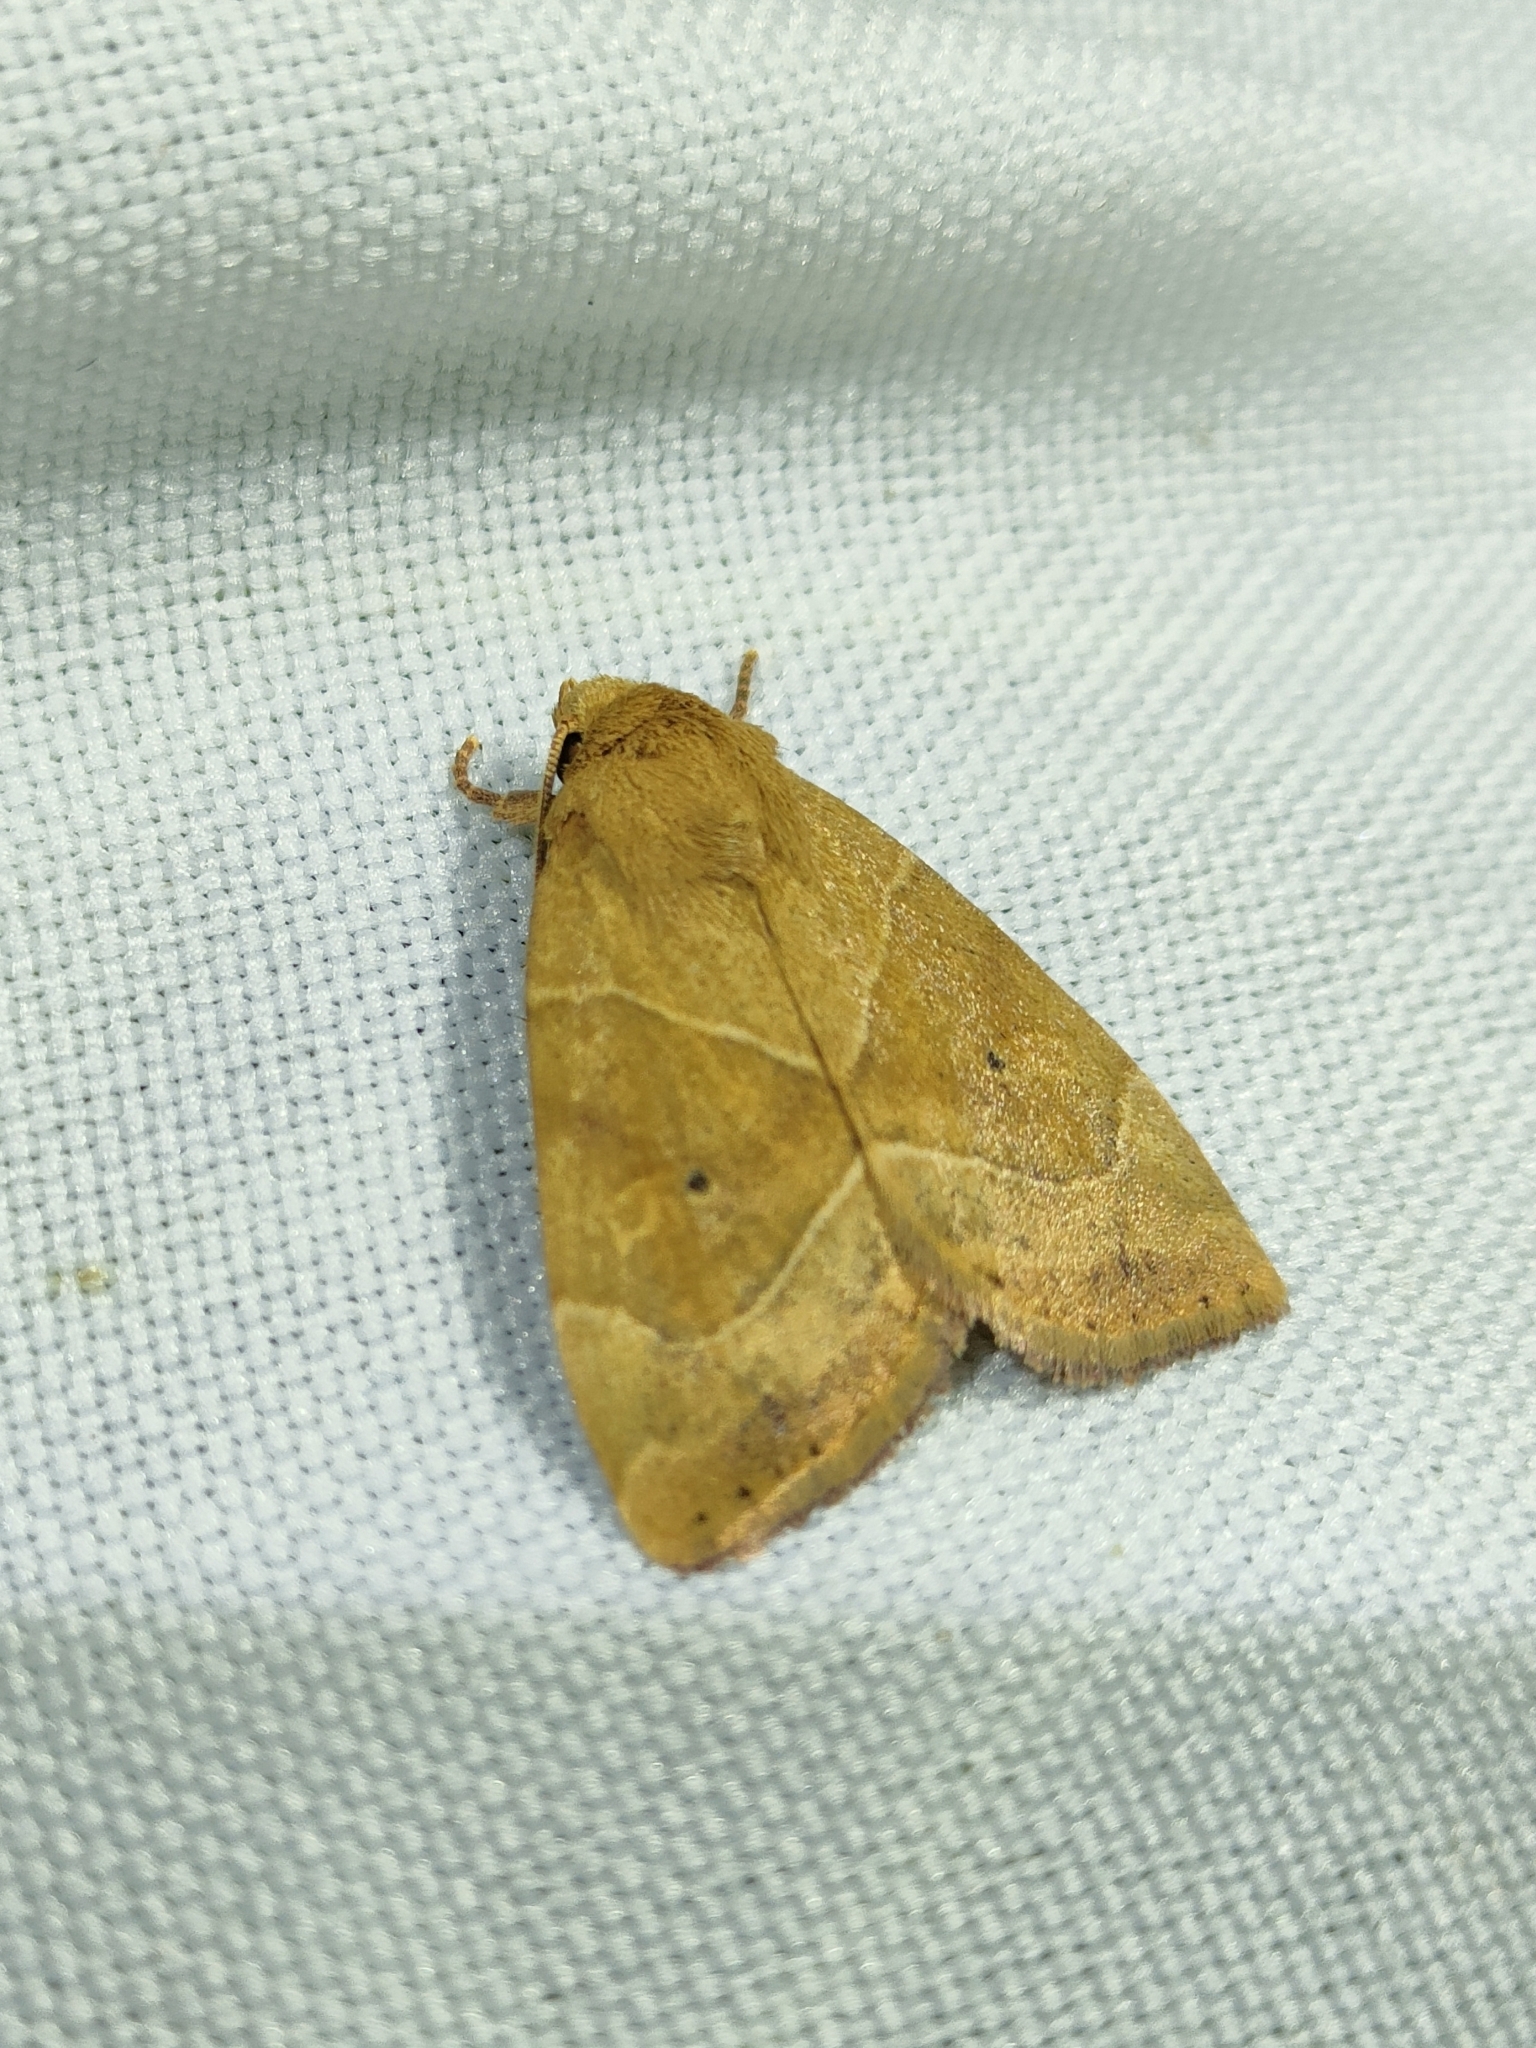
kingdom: Animalia
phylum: Arthropoda
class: Insecta
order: Lepidoptera
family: Noctuidae
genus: Cosmia
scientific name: Cosmia trapezina
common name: Dun-bar
